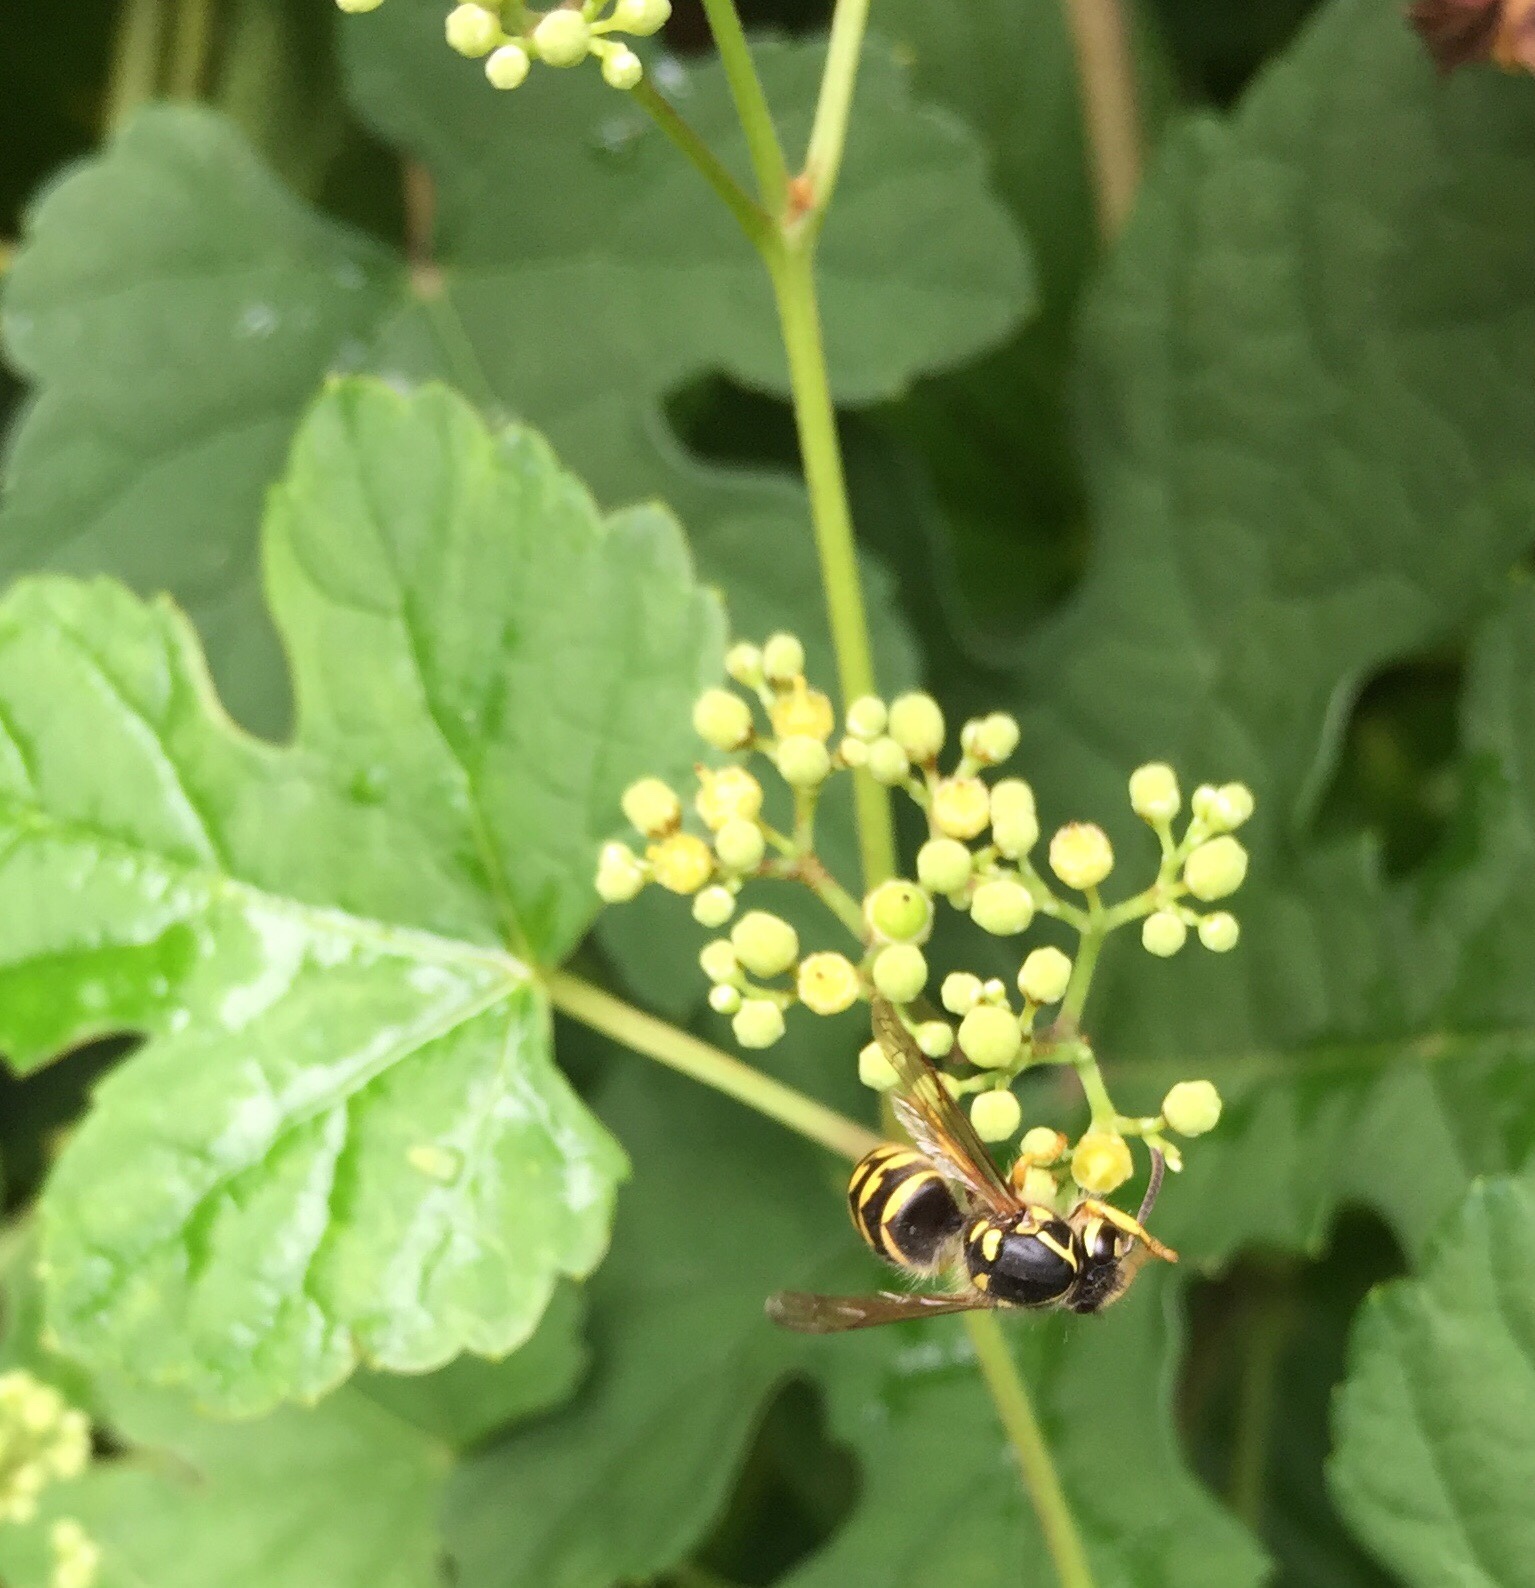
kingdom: Animalia
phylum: Arthropoda
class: Insecta
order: Hymenoptera
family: Vespidae
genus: Dolichovespula
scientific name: Dolichovespula arenaria
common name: Aerial yellowjacket
